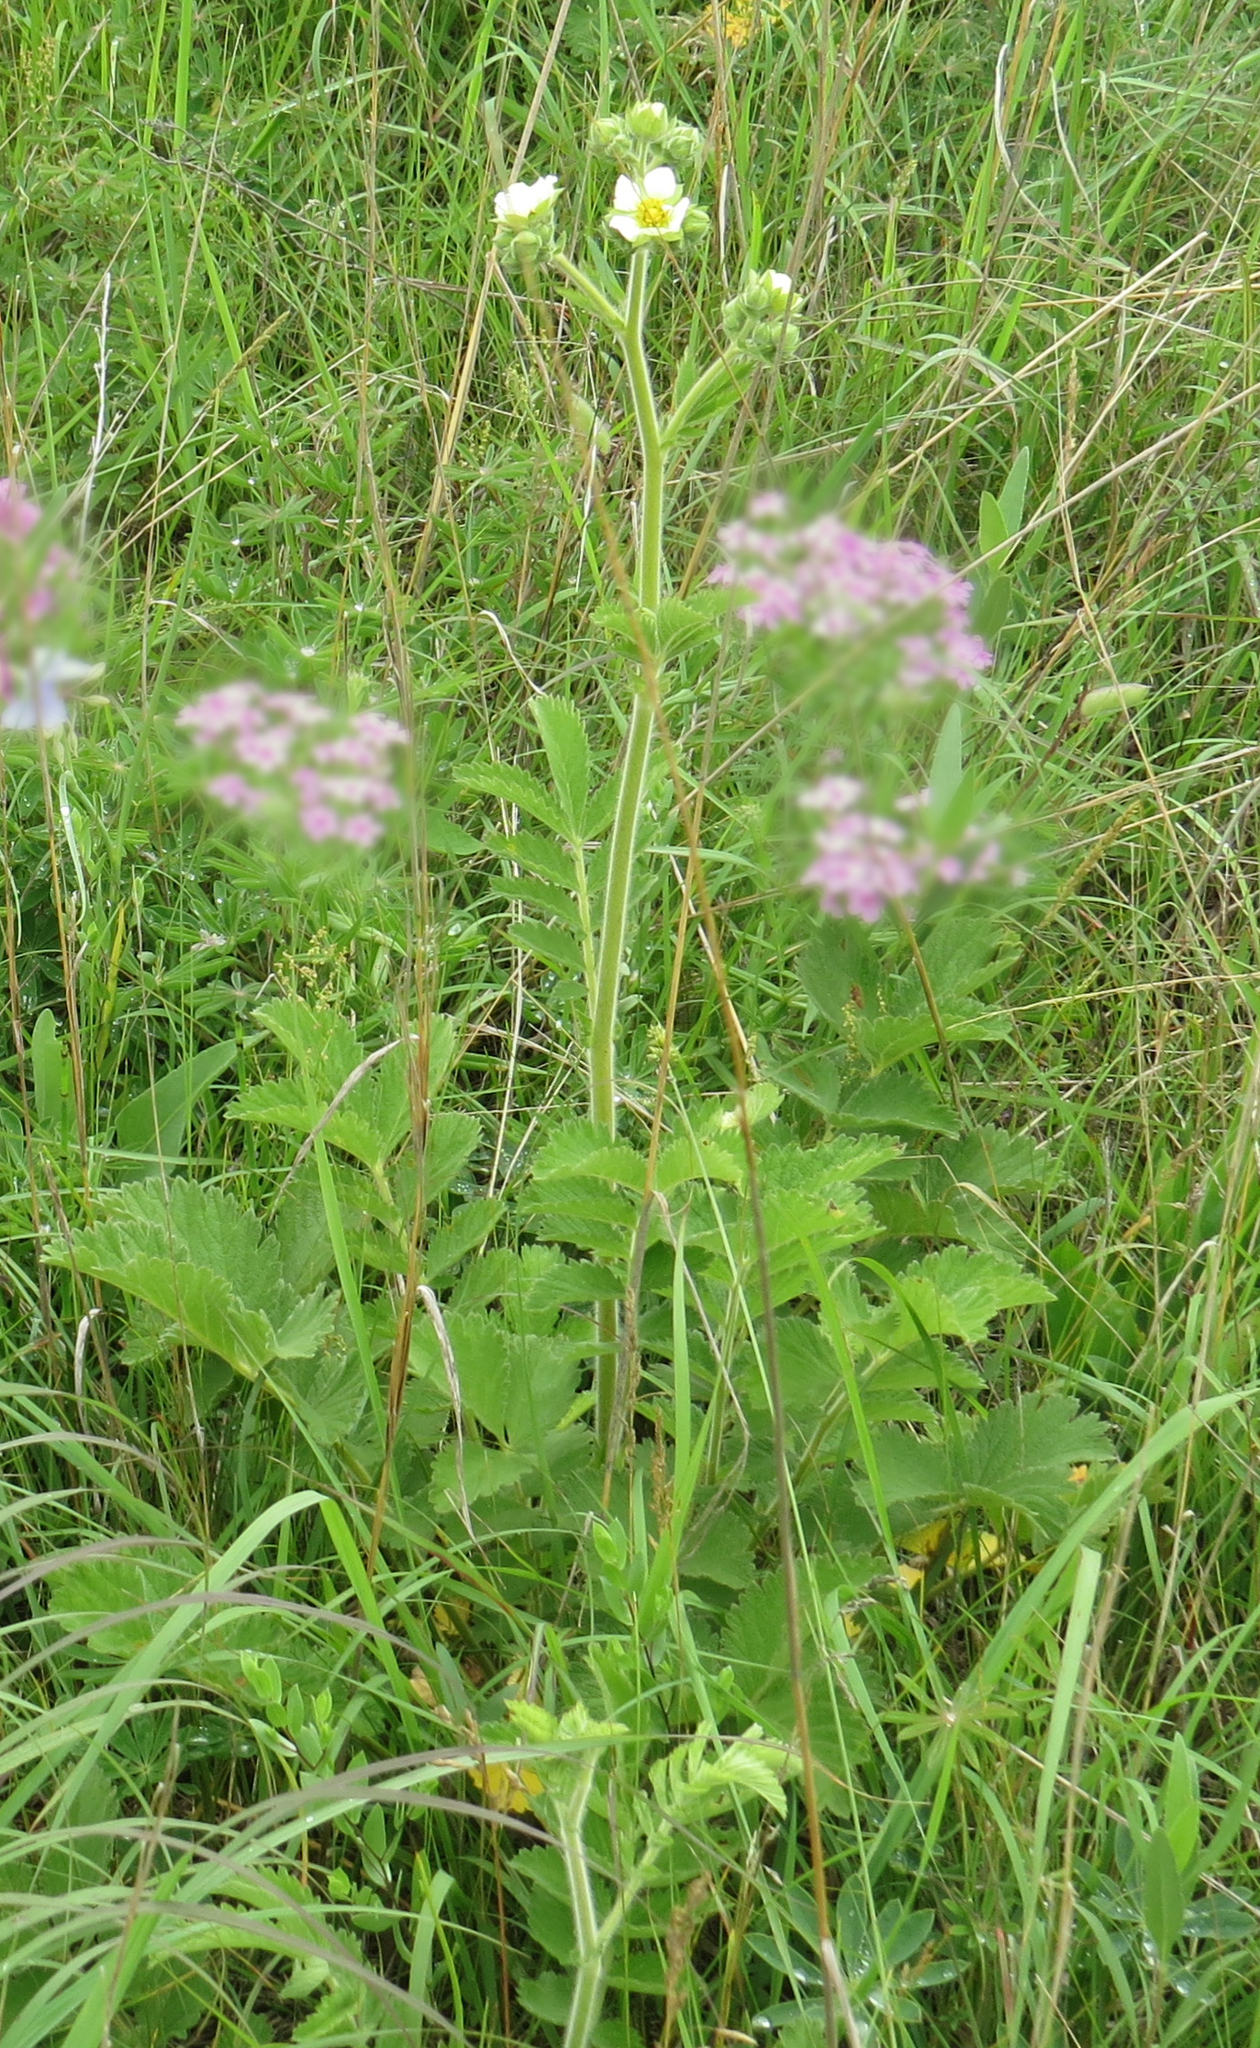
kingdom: Plantae
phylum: Tracheophyta
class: Magnoliopsida
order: Rosales
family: Rosaceae
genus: Drymocallis
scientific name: Drymocallis arguta
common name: Tall cinquefoil
